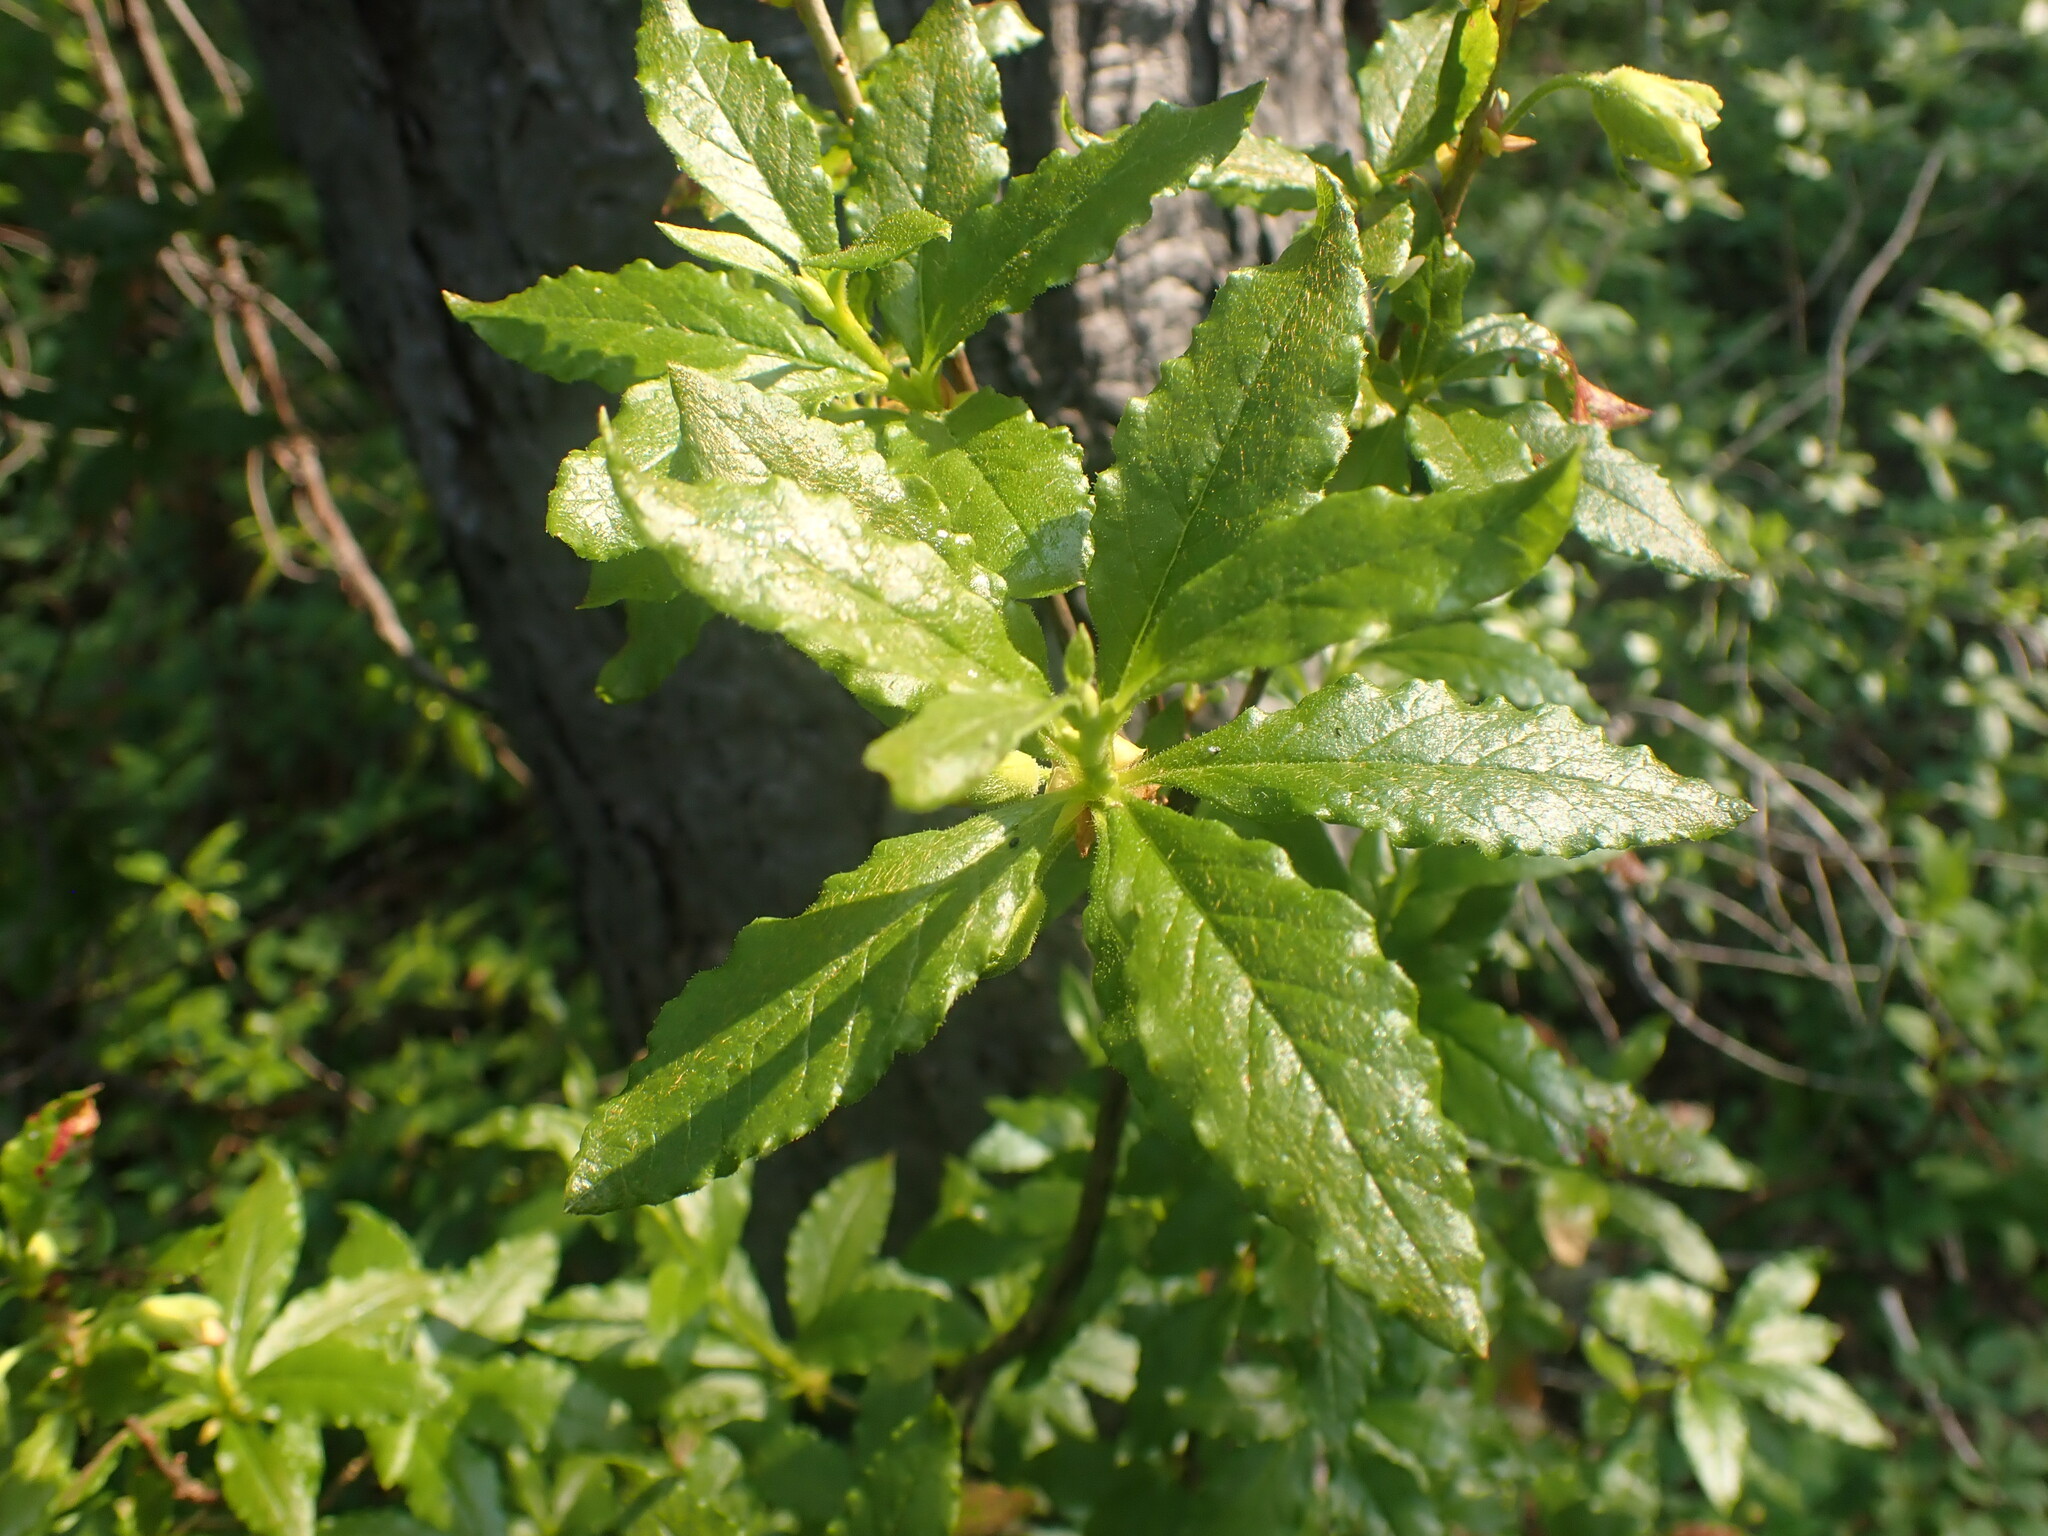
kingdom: Plantae
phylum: Tracheophyta
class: Magnoliopsida
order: Ericales
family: Ericaceae
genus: Rhododendron
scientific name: Rhododendron albiflorum
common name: White rhododendron
